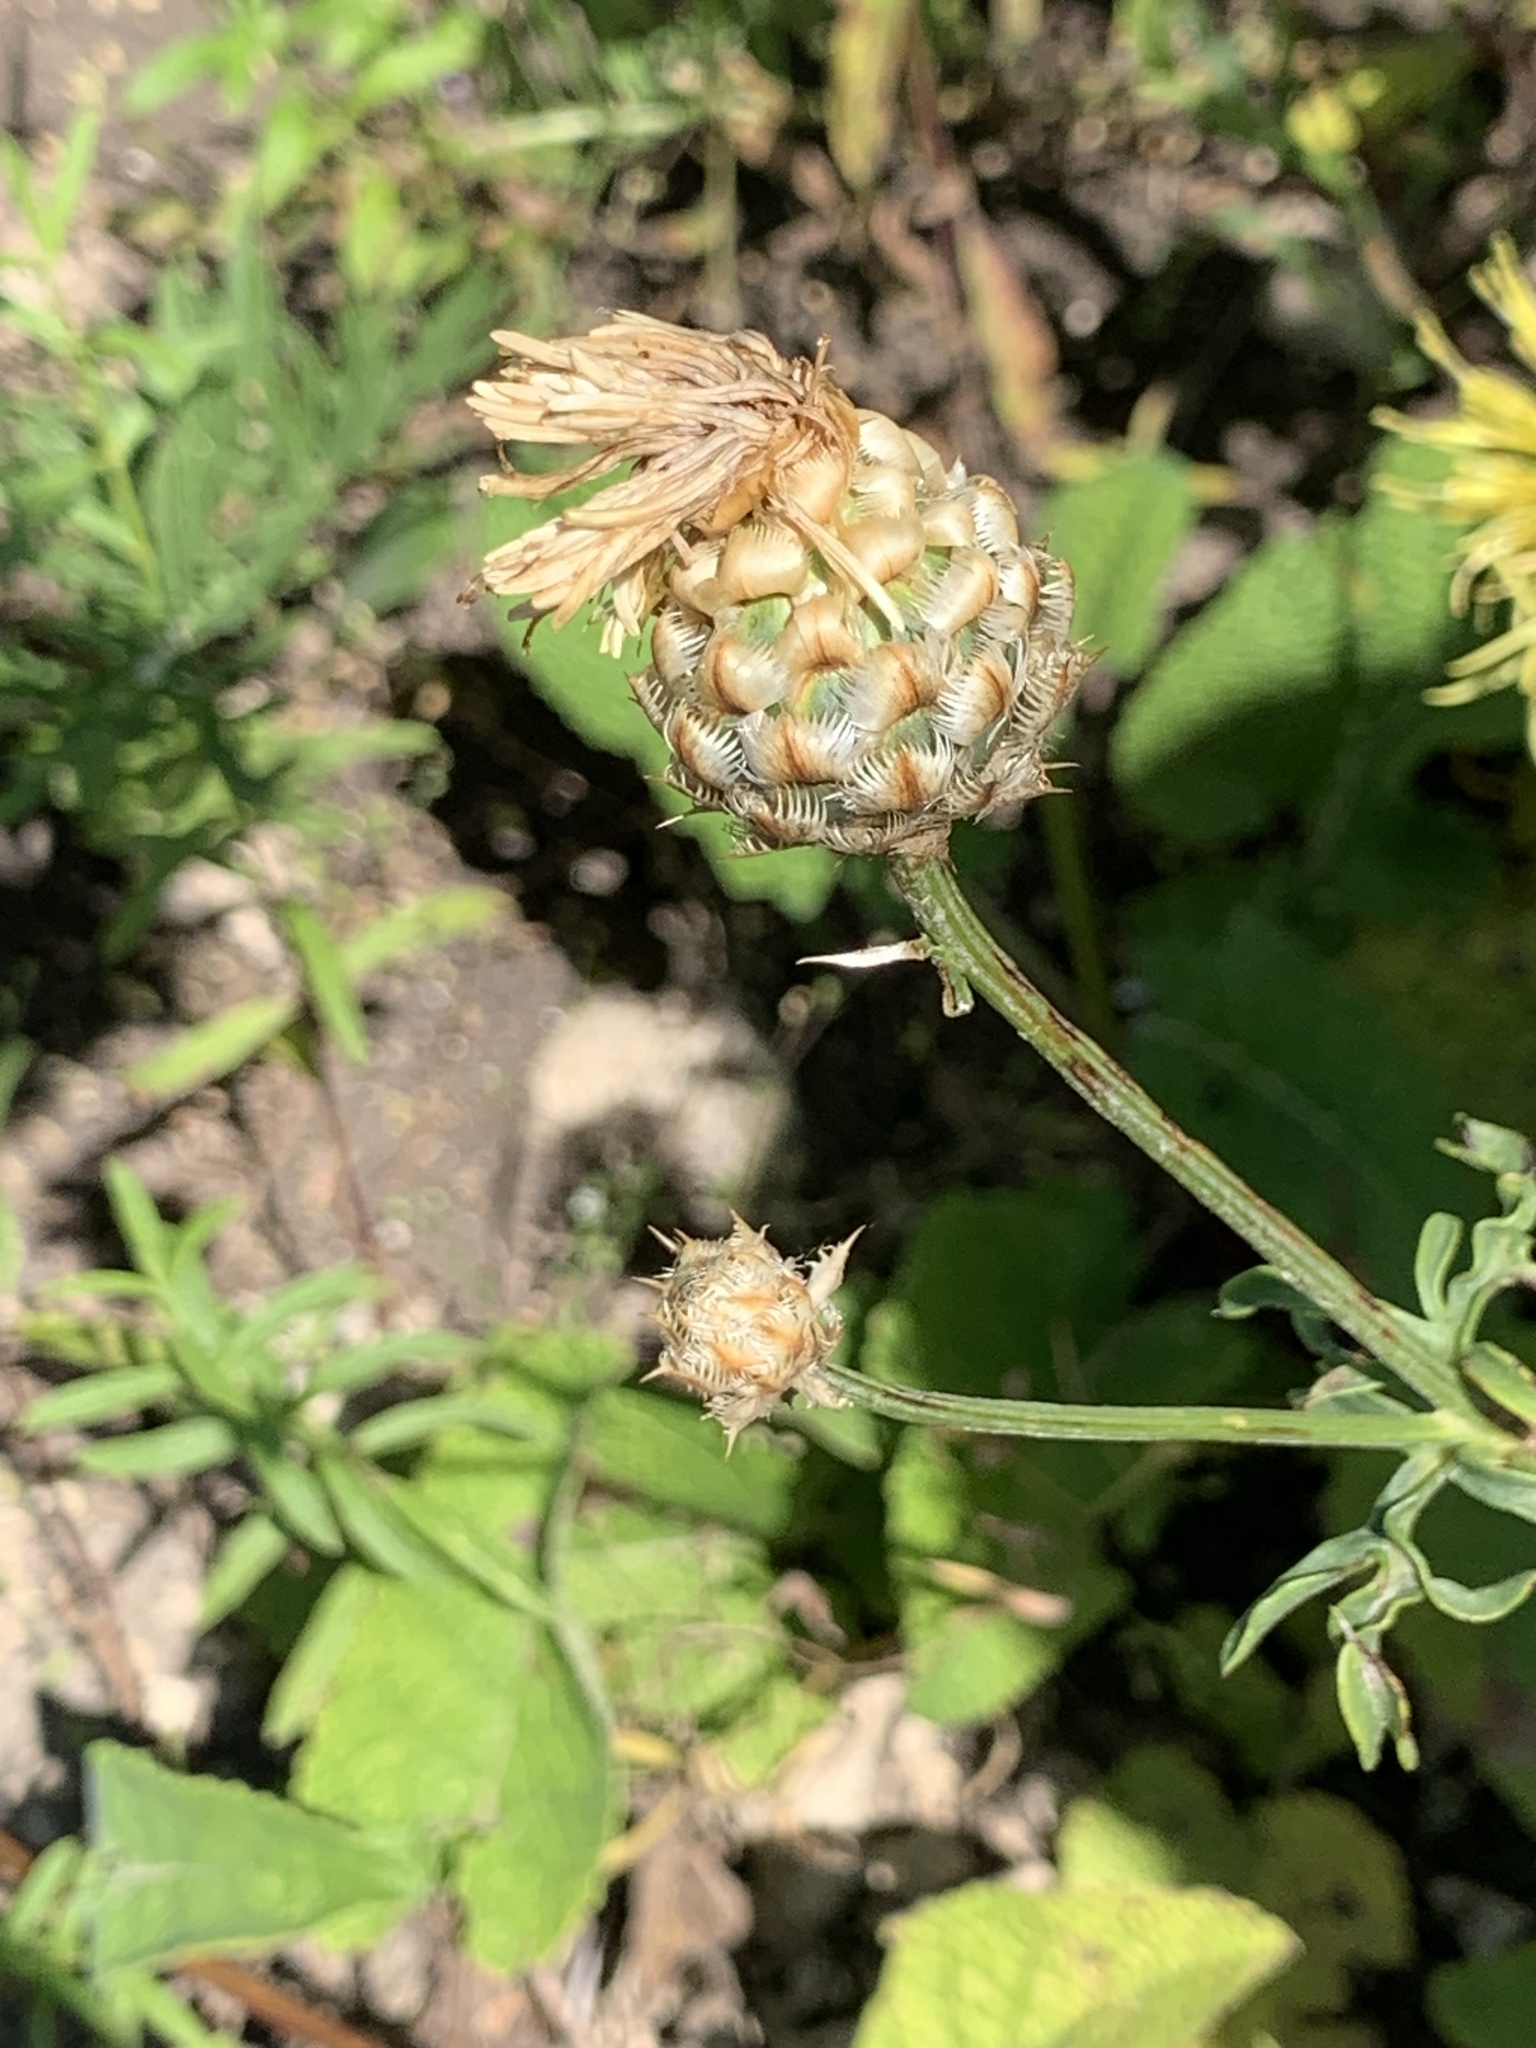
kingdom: Plantae
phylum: Tracheophyta
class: Magnoliopsida
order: Asterales
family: Asteraceae
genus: Centaurea
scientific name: Centaurea orientalis
